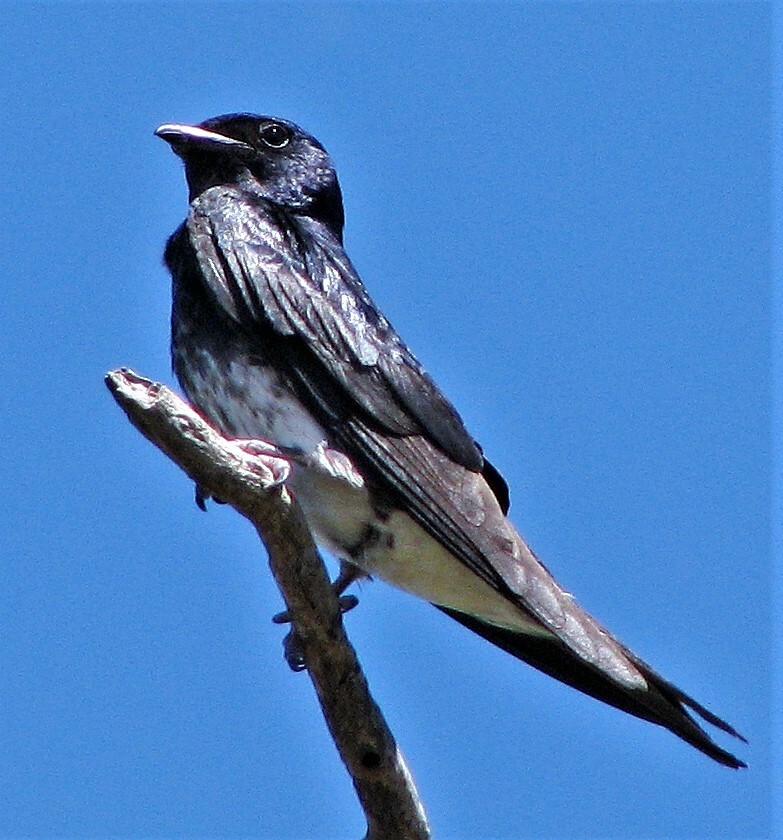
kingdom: Animalia
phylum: Chordata
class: Aves
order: Passeriformes
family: Hirundinidae
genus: Progne
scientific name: Progne chalybea
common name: Grey-breasted martin
